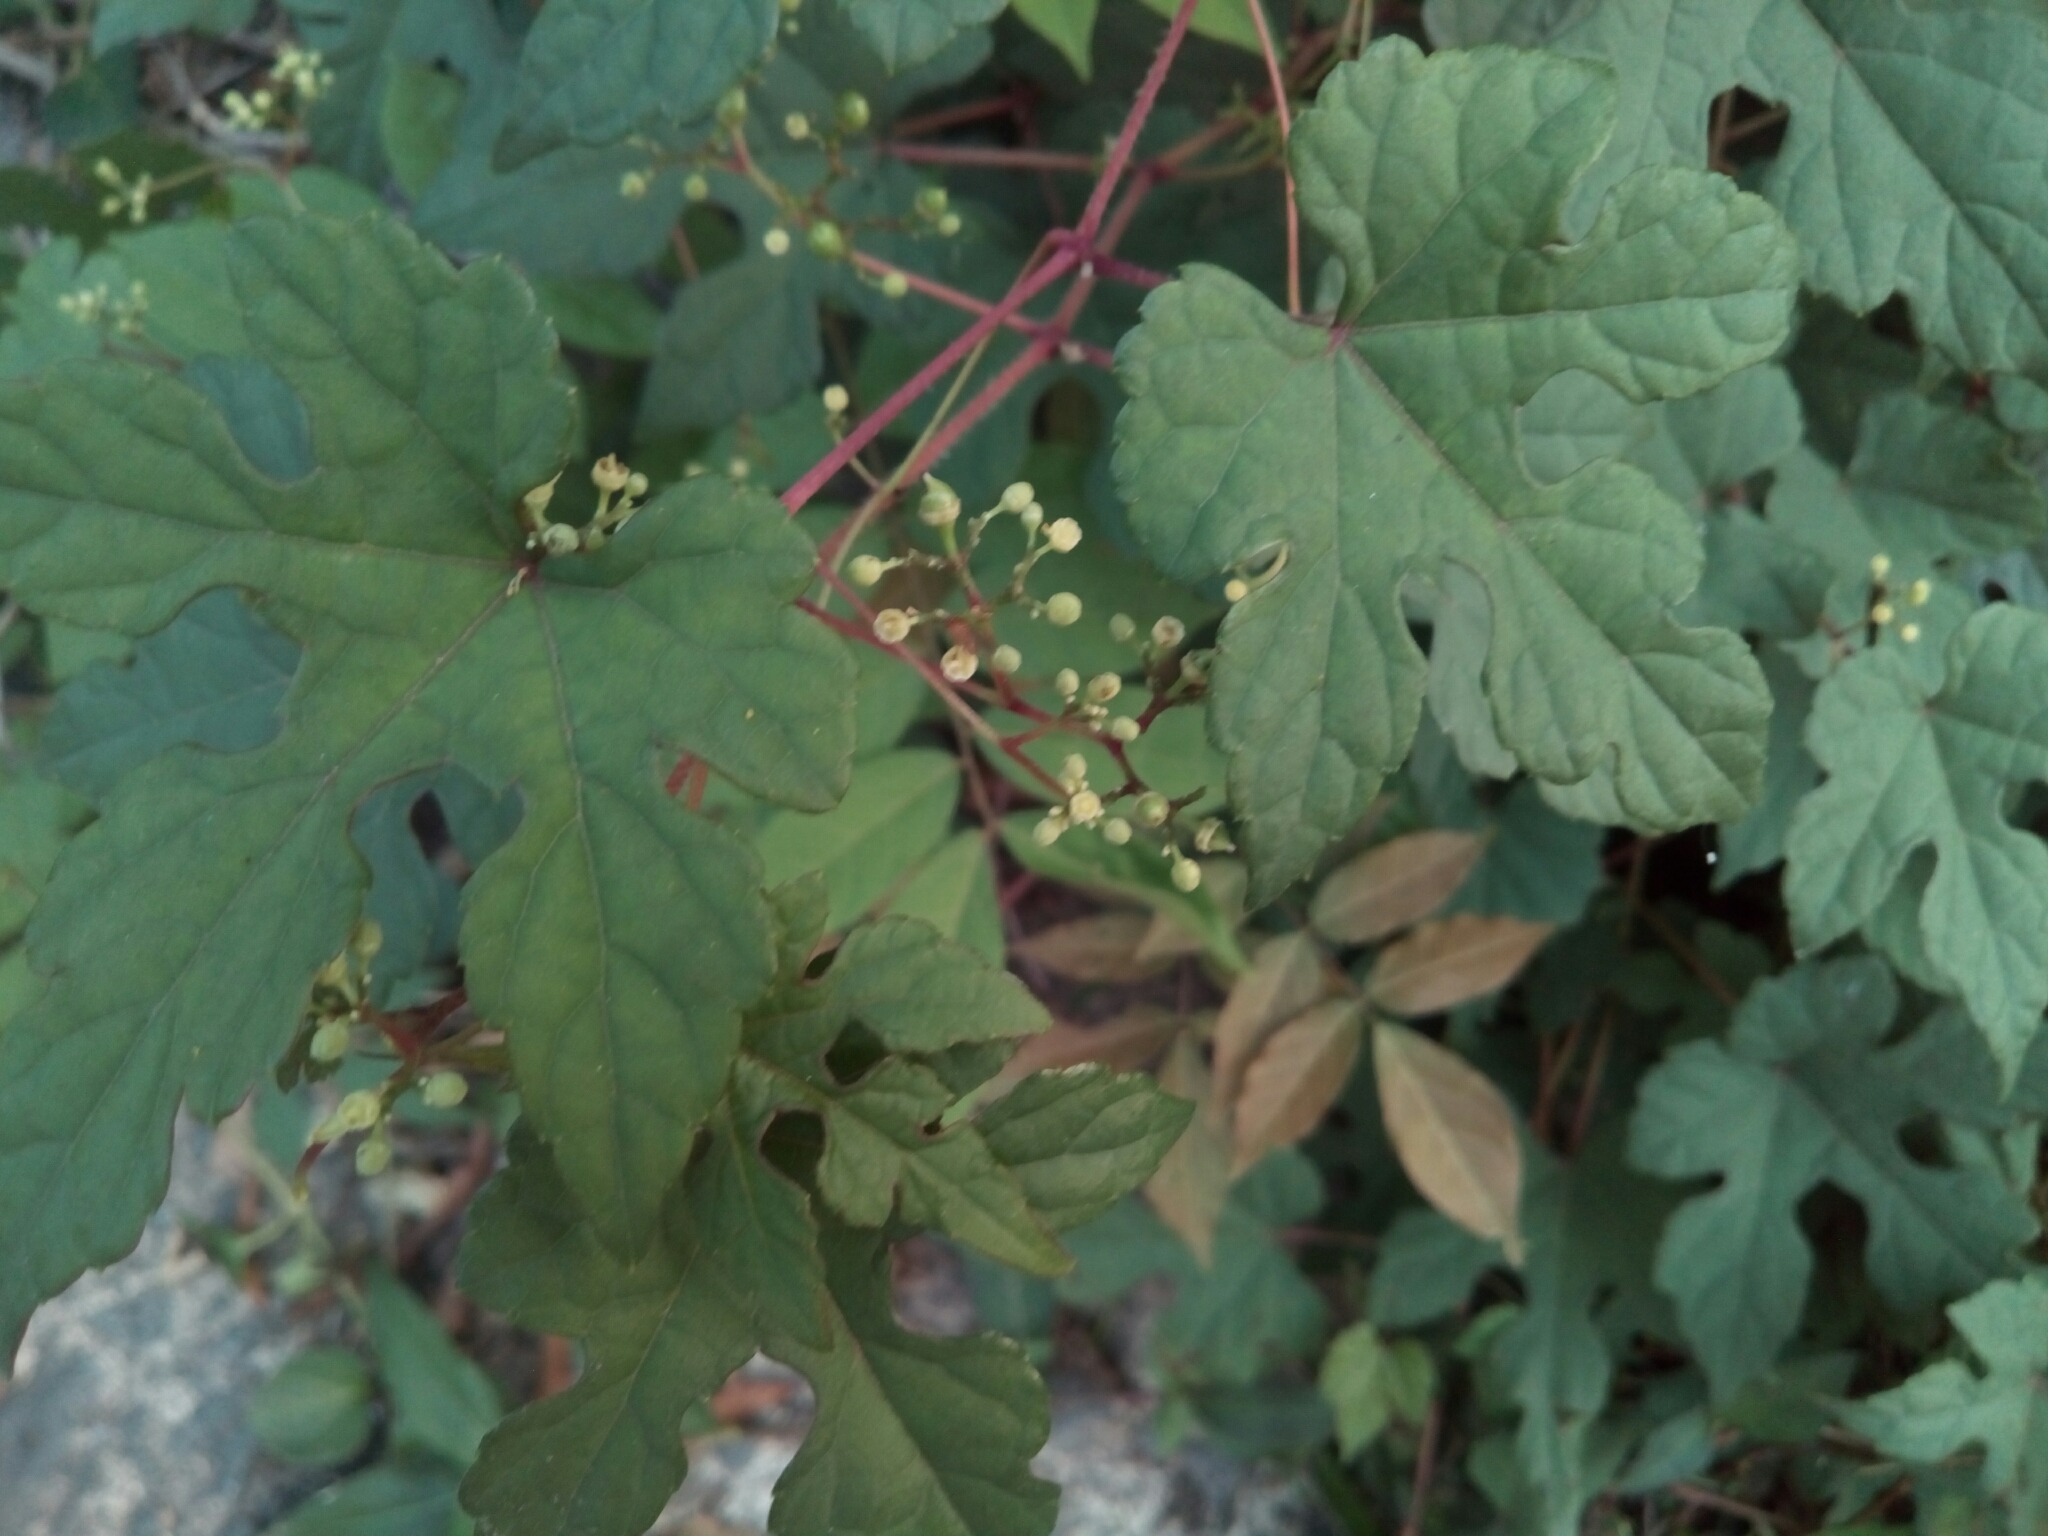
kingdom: Plantae
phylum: Tracheophyta
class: Magnoliopsida
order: Vitales
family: Vitaceae
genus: Ampelopsis
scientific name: Ampelopsis glandulosa
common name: Amur peppervine
